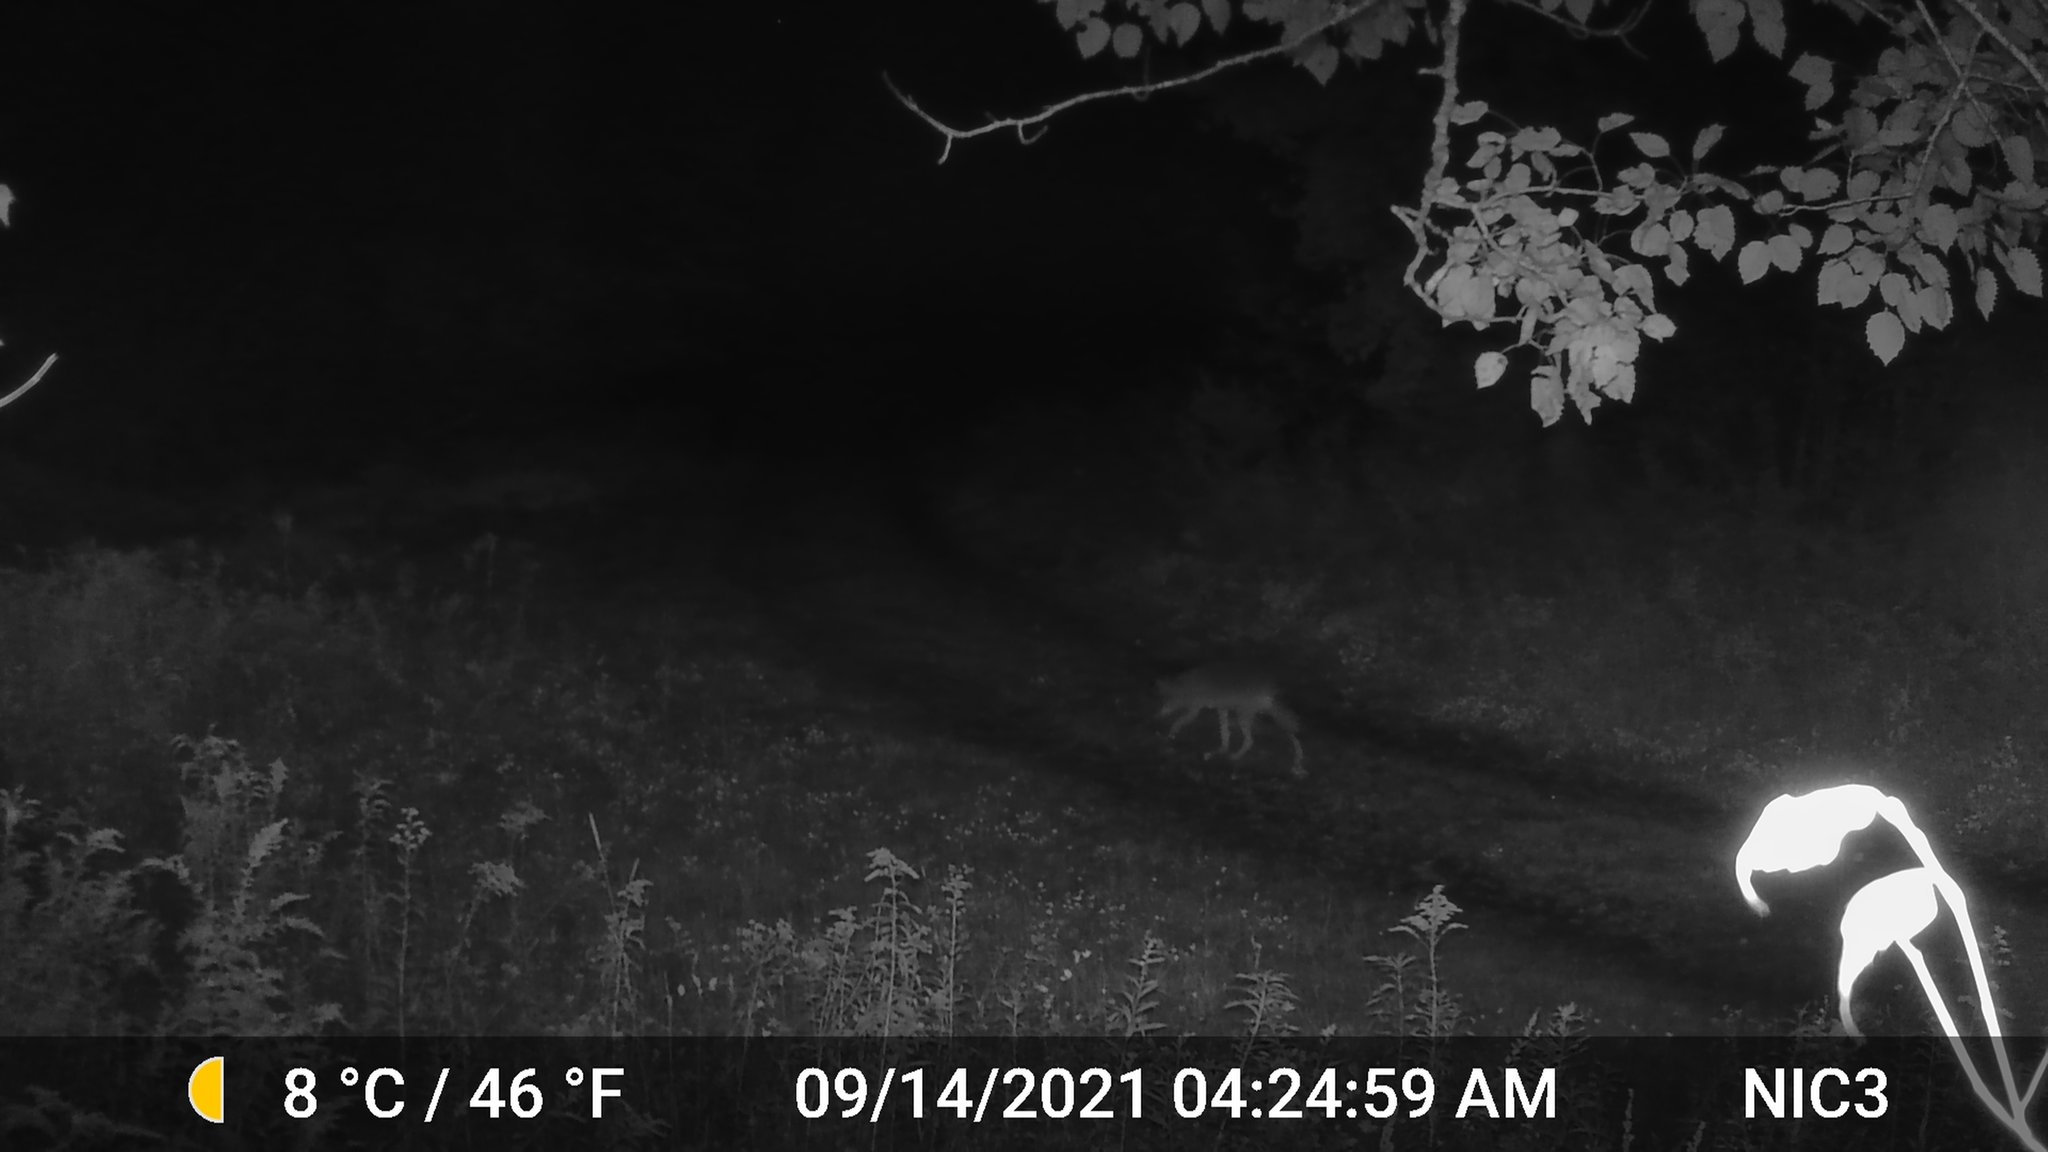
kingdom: Animalia
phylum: Chordata
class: Mammalia
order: Carnivora
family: Canidae
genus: Canis
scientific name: Canis latrans
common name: Coyote
